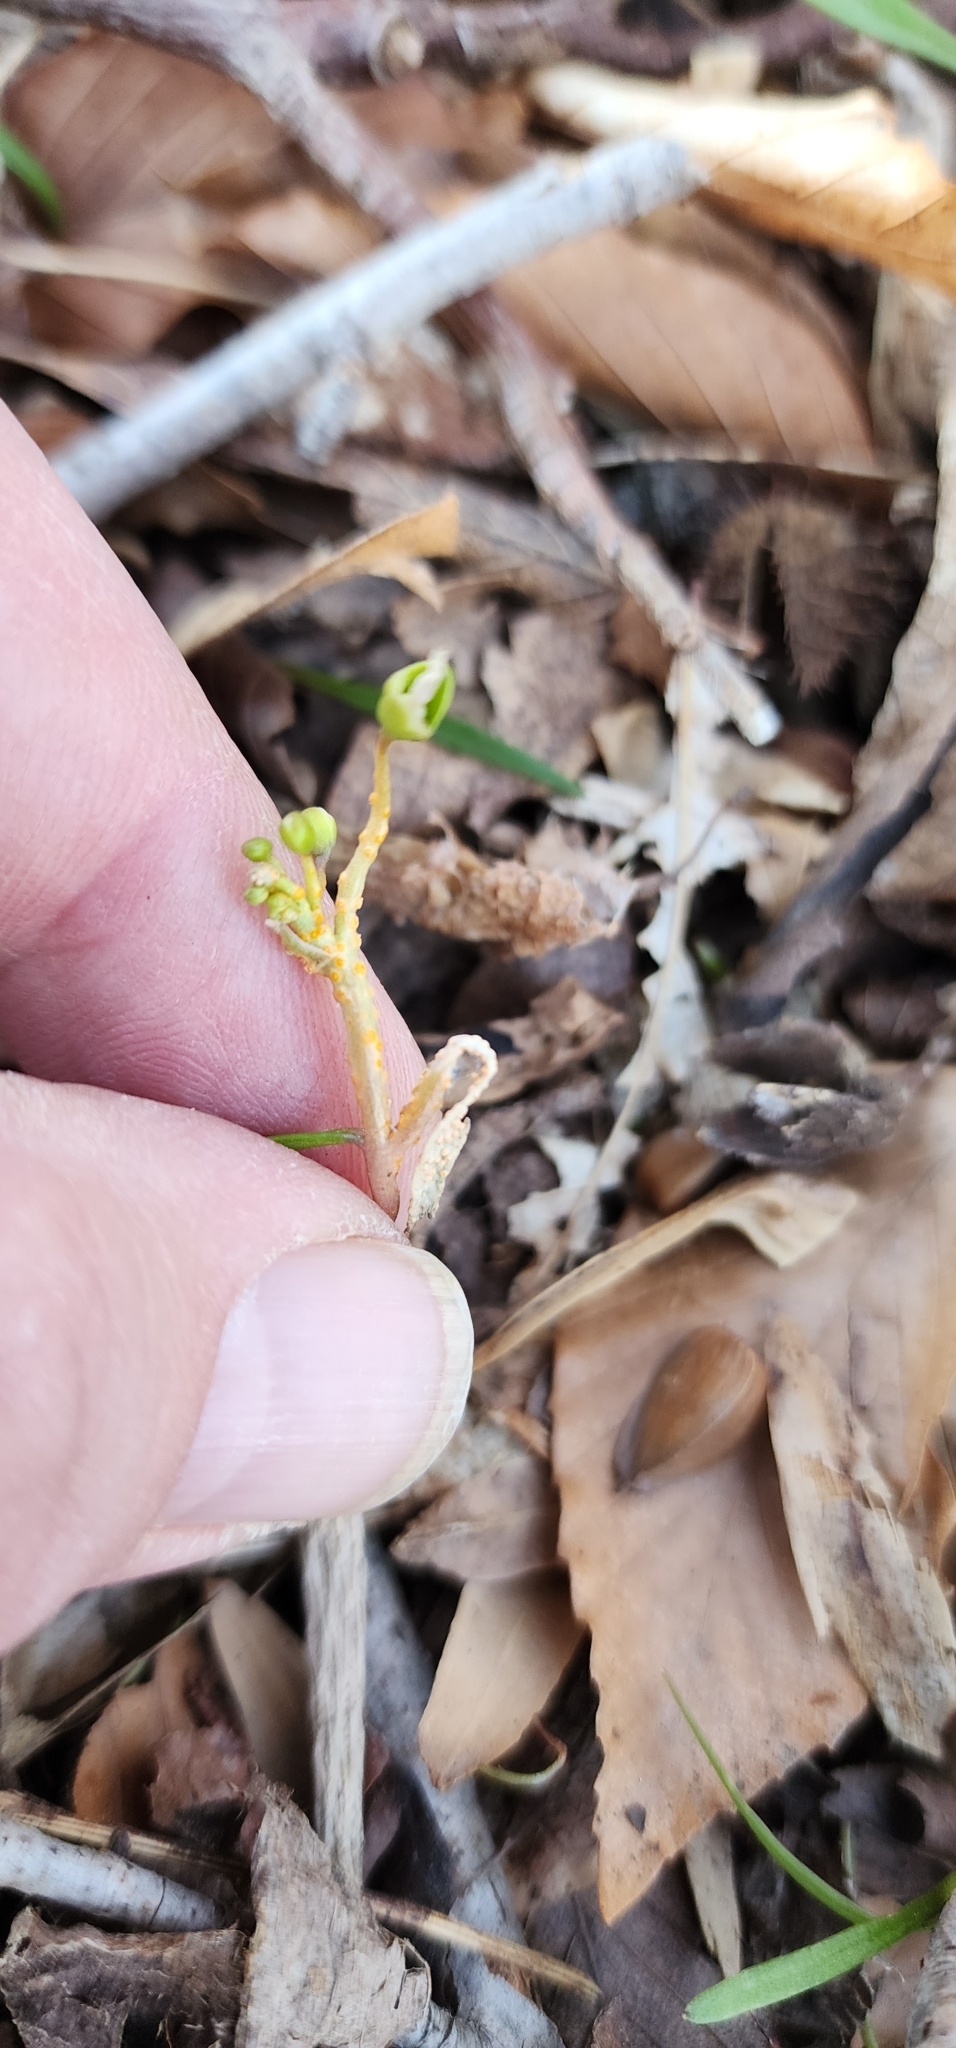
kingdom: Fungi
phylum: Basidiomycota
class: Pucciniomycetes
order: Pucciniales
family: Pucciniaceae
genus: Puccinia
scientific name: Puccinia mariae-wilsoniae
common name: Spring beauty rust
